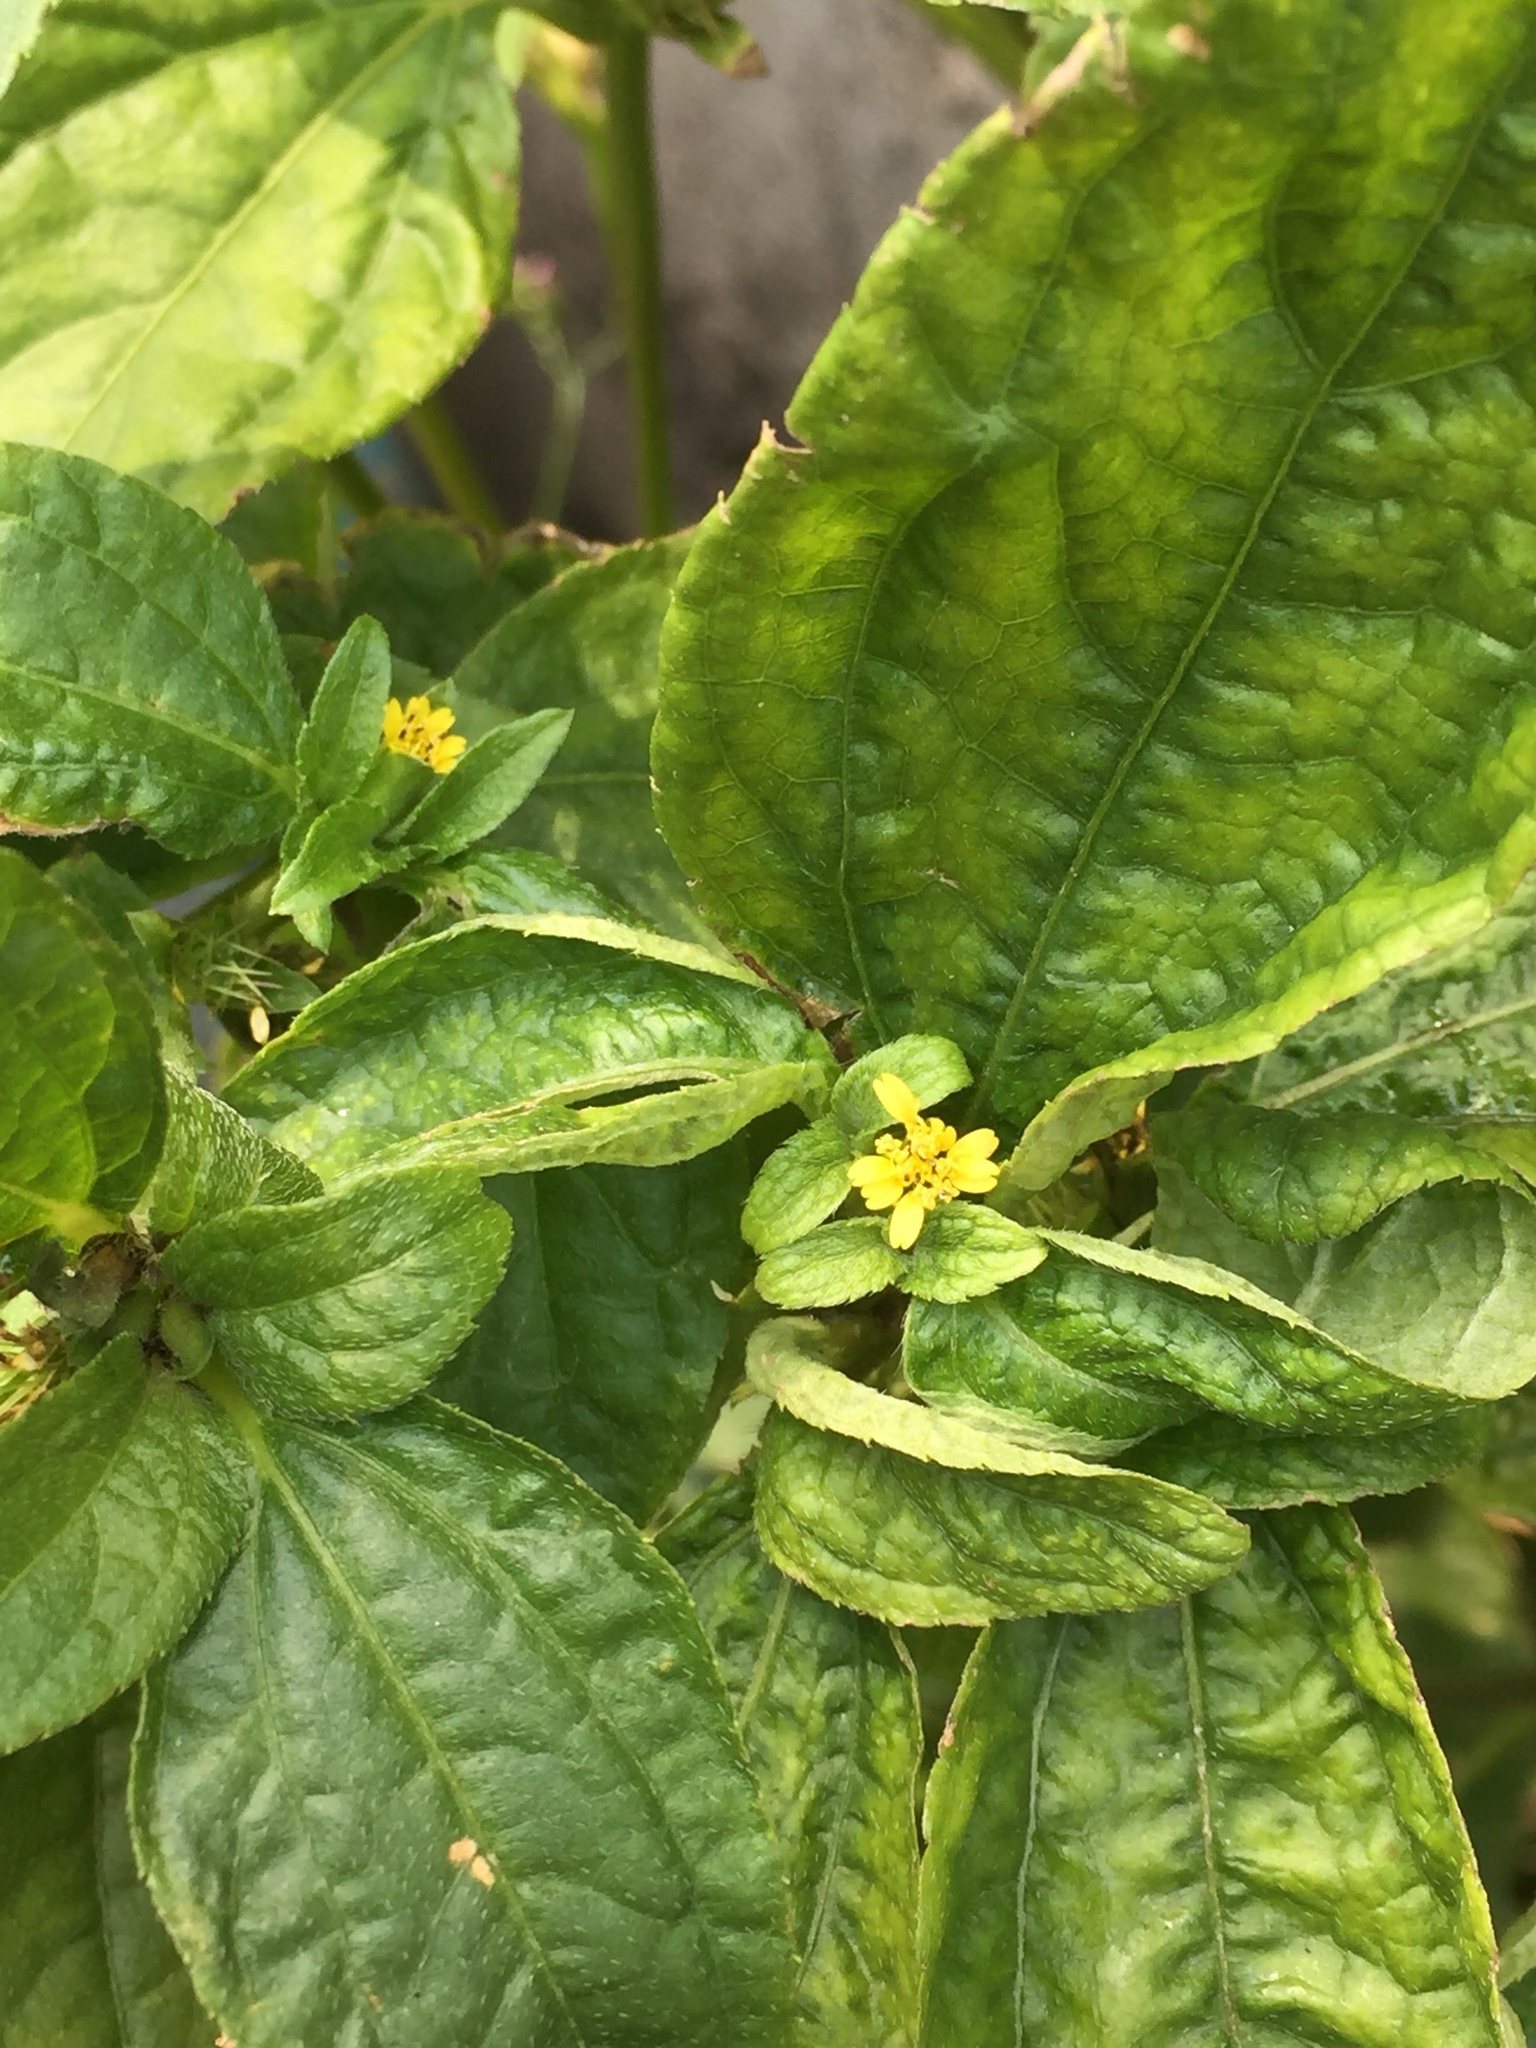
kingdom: Plantae
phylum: Tracheophyta
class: Magnoliopsida
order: Asterales
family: Asteraceae
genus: Synedrella
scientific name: Synedrella nodiflora
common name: Nodeweed
